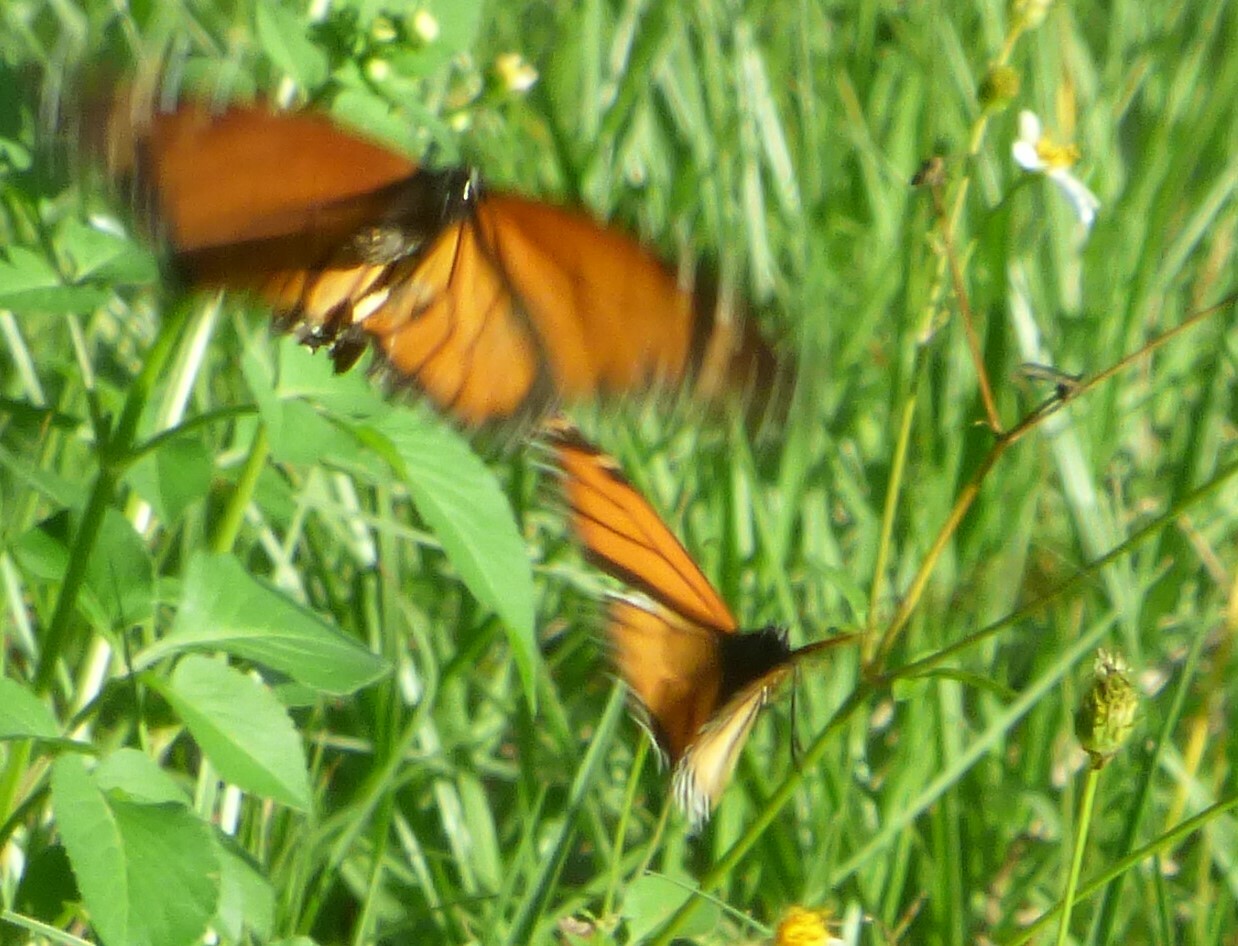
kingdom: Animalia
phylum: Arthropoda
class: Insecta
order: Lepidoptera
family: Nymphalidae
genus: Danaus
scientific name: Danaus plexippus
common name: Monarch
